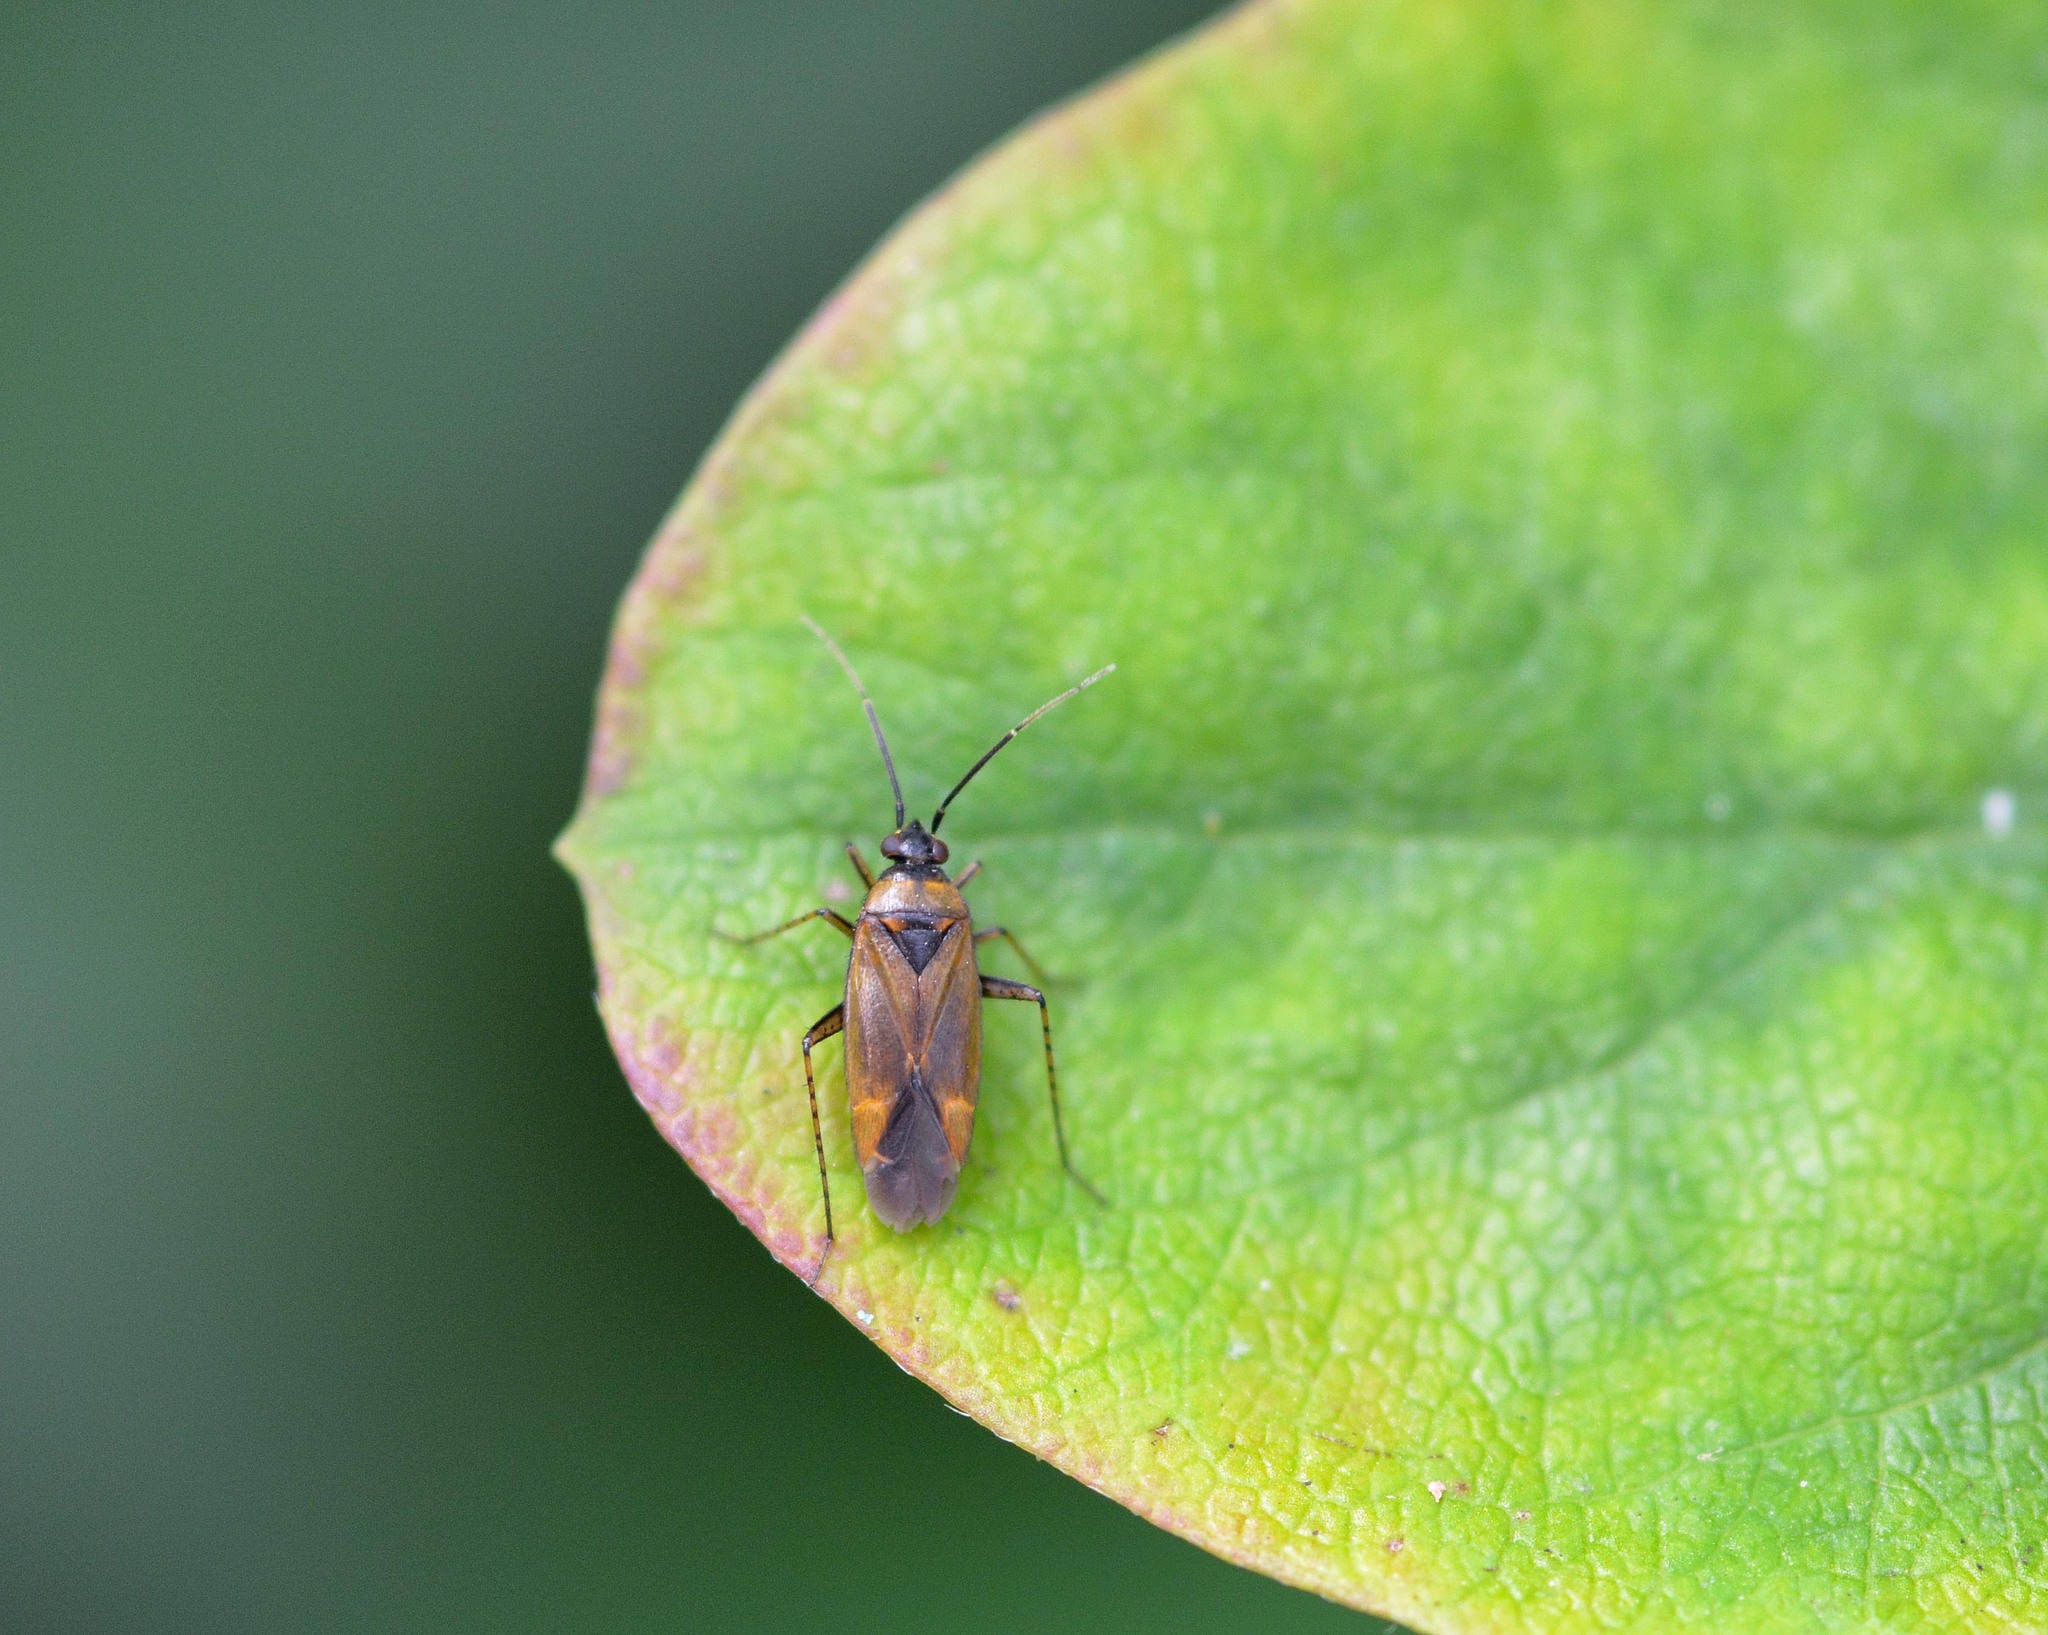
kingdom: Animalia
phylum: Arthropoda
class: Insecta
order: Hemiptera
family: Miridae
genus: Plagiognathus
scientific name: Plagiognathus arbustorum
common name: Plant bug
